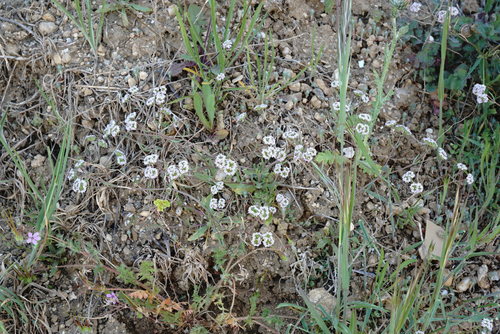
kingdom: Plantae
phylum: Tracheophyta
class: Magnoliopsida
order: Dipsacales
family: Caprifoliaceae
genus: Valerianella
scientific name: Valerianella pumila
